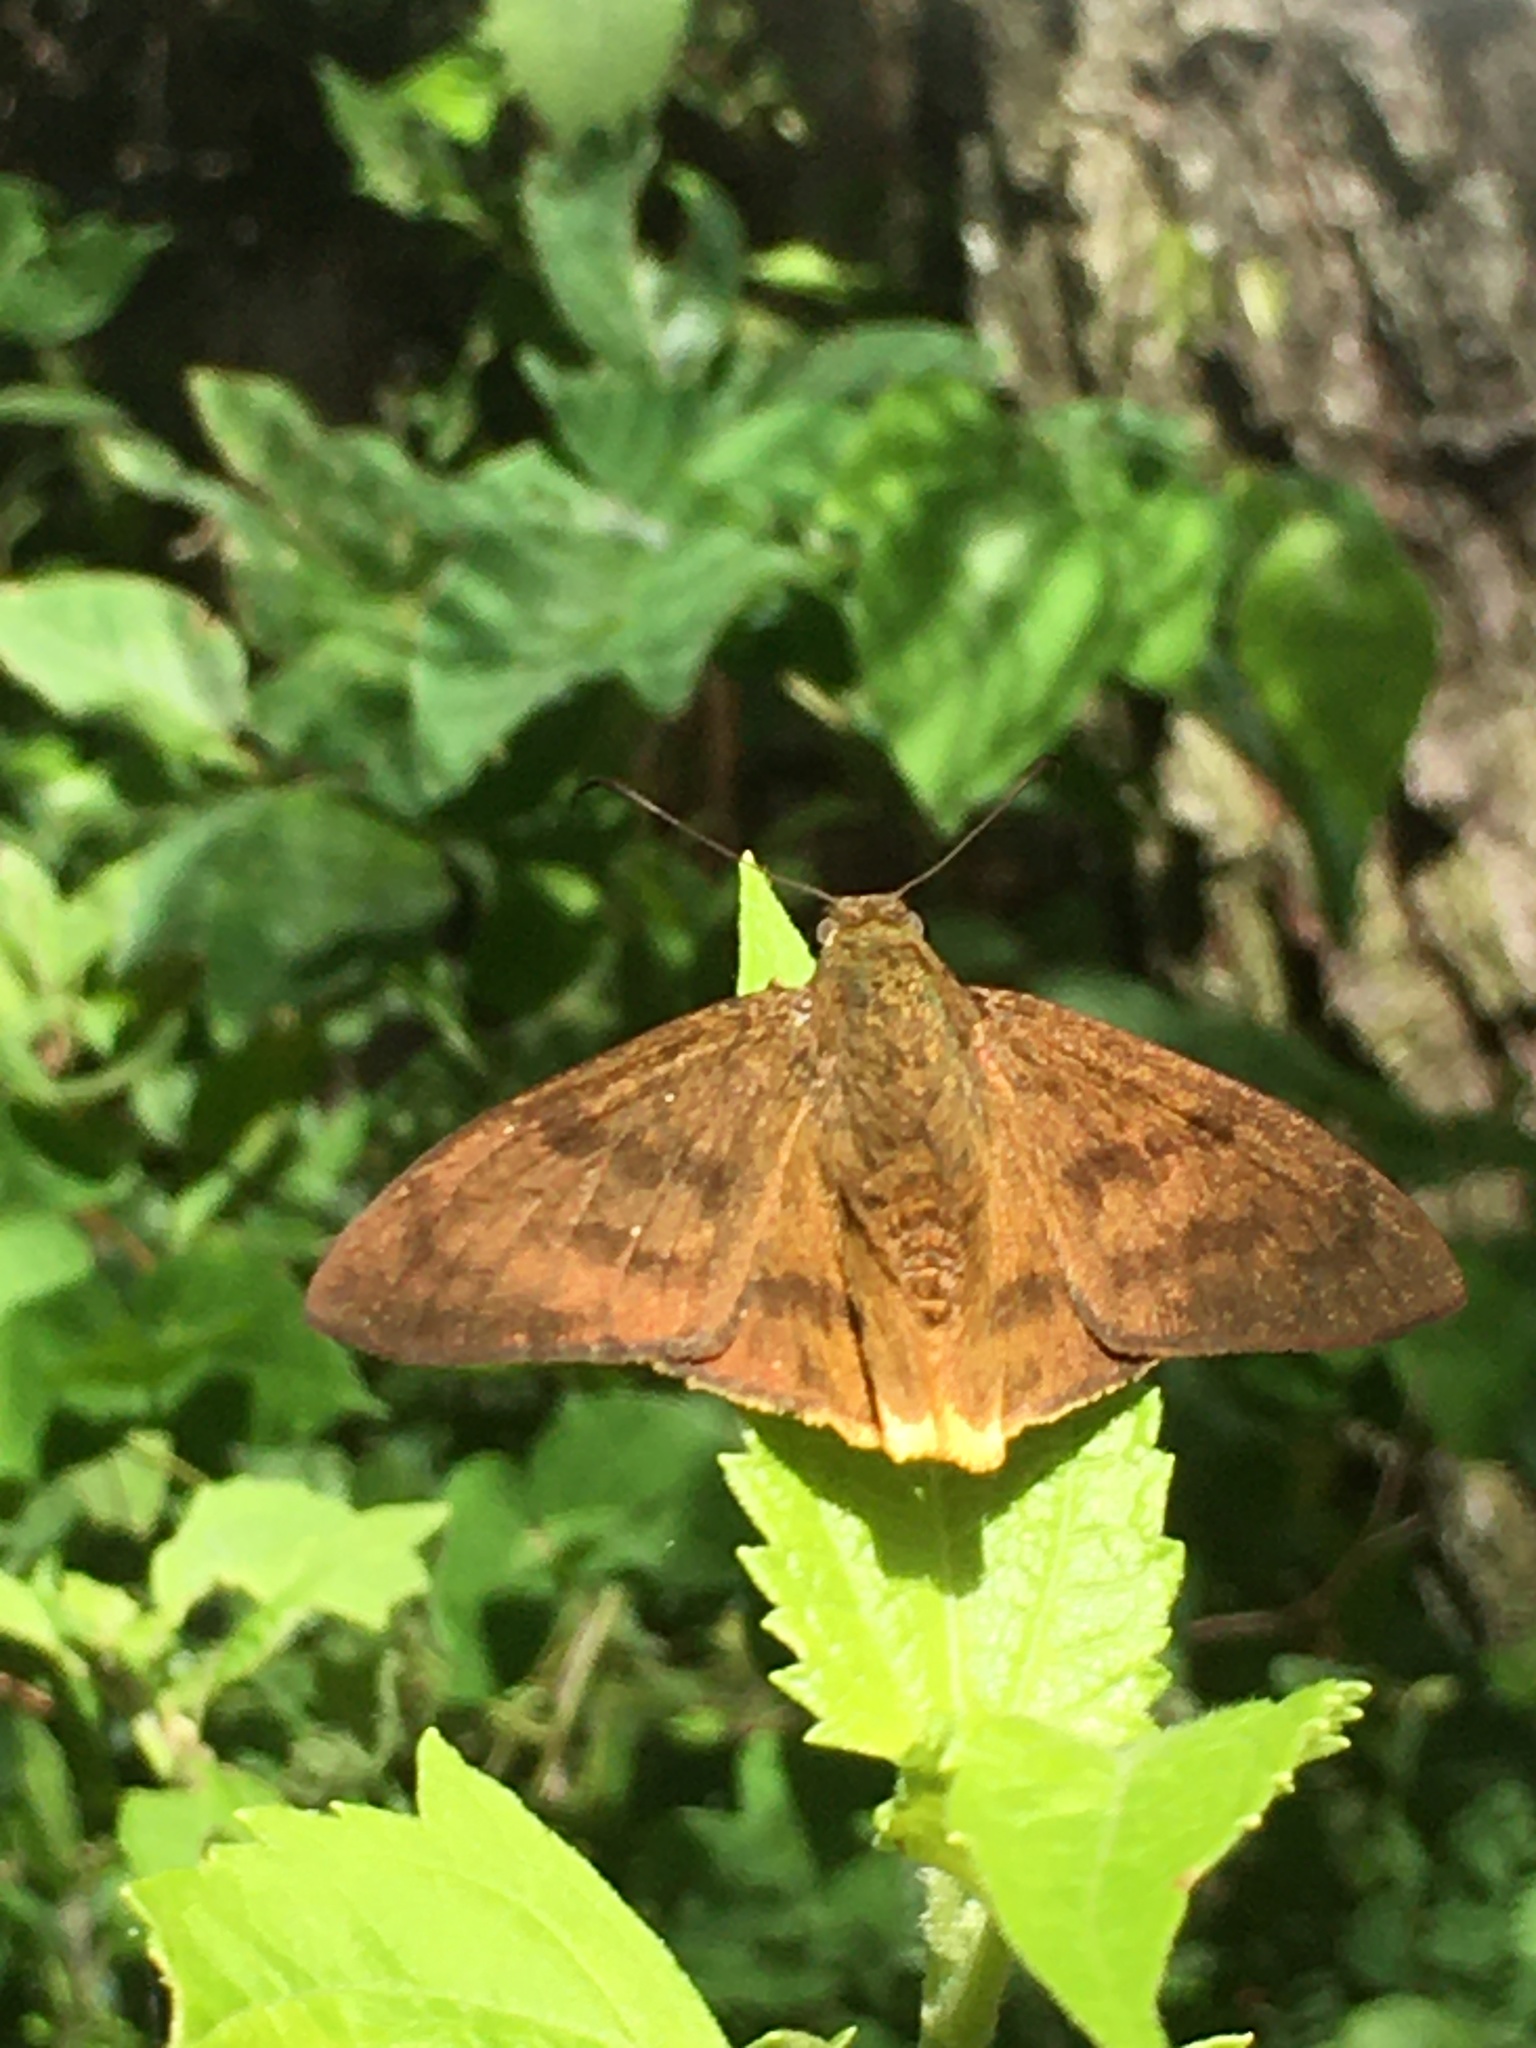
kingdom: Animalia
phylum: Arthropoda
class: Insecta
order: Lepidoptera
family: Hesperiidae
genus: Astraptes
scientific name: Astraptes anaphus
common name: Yellow-tipped flasher
